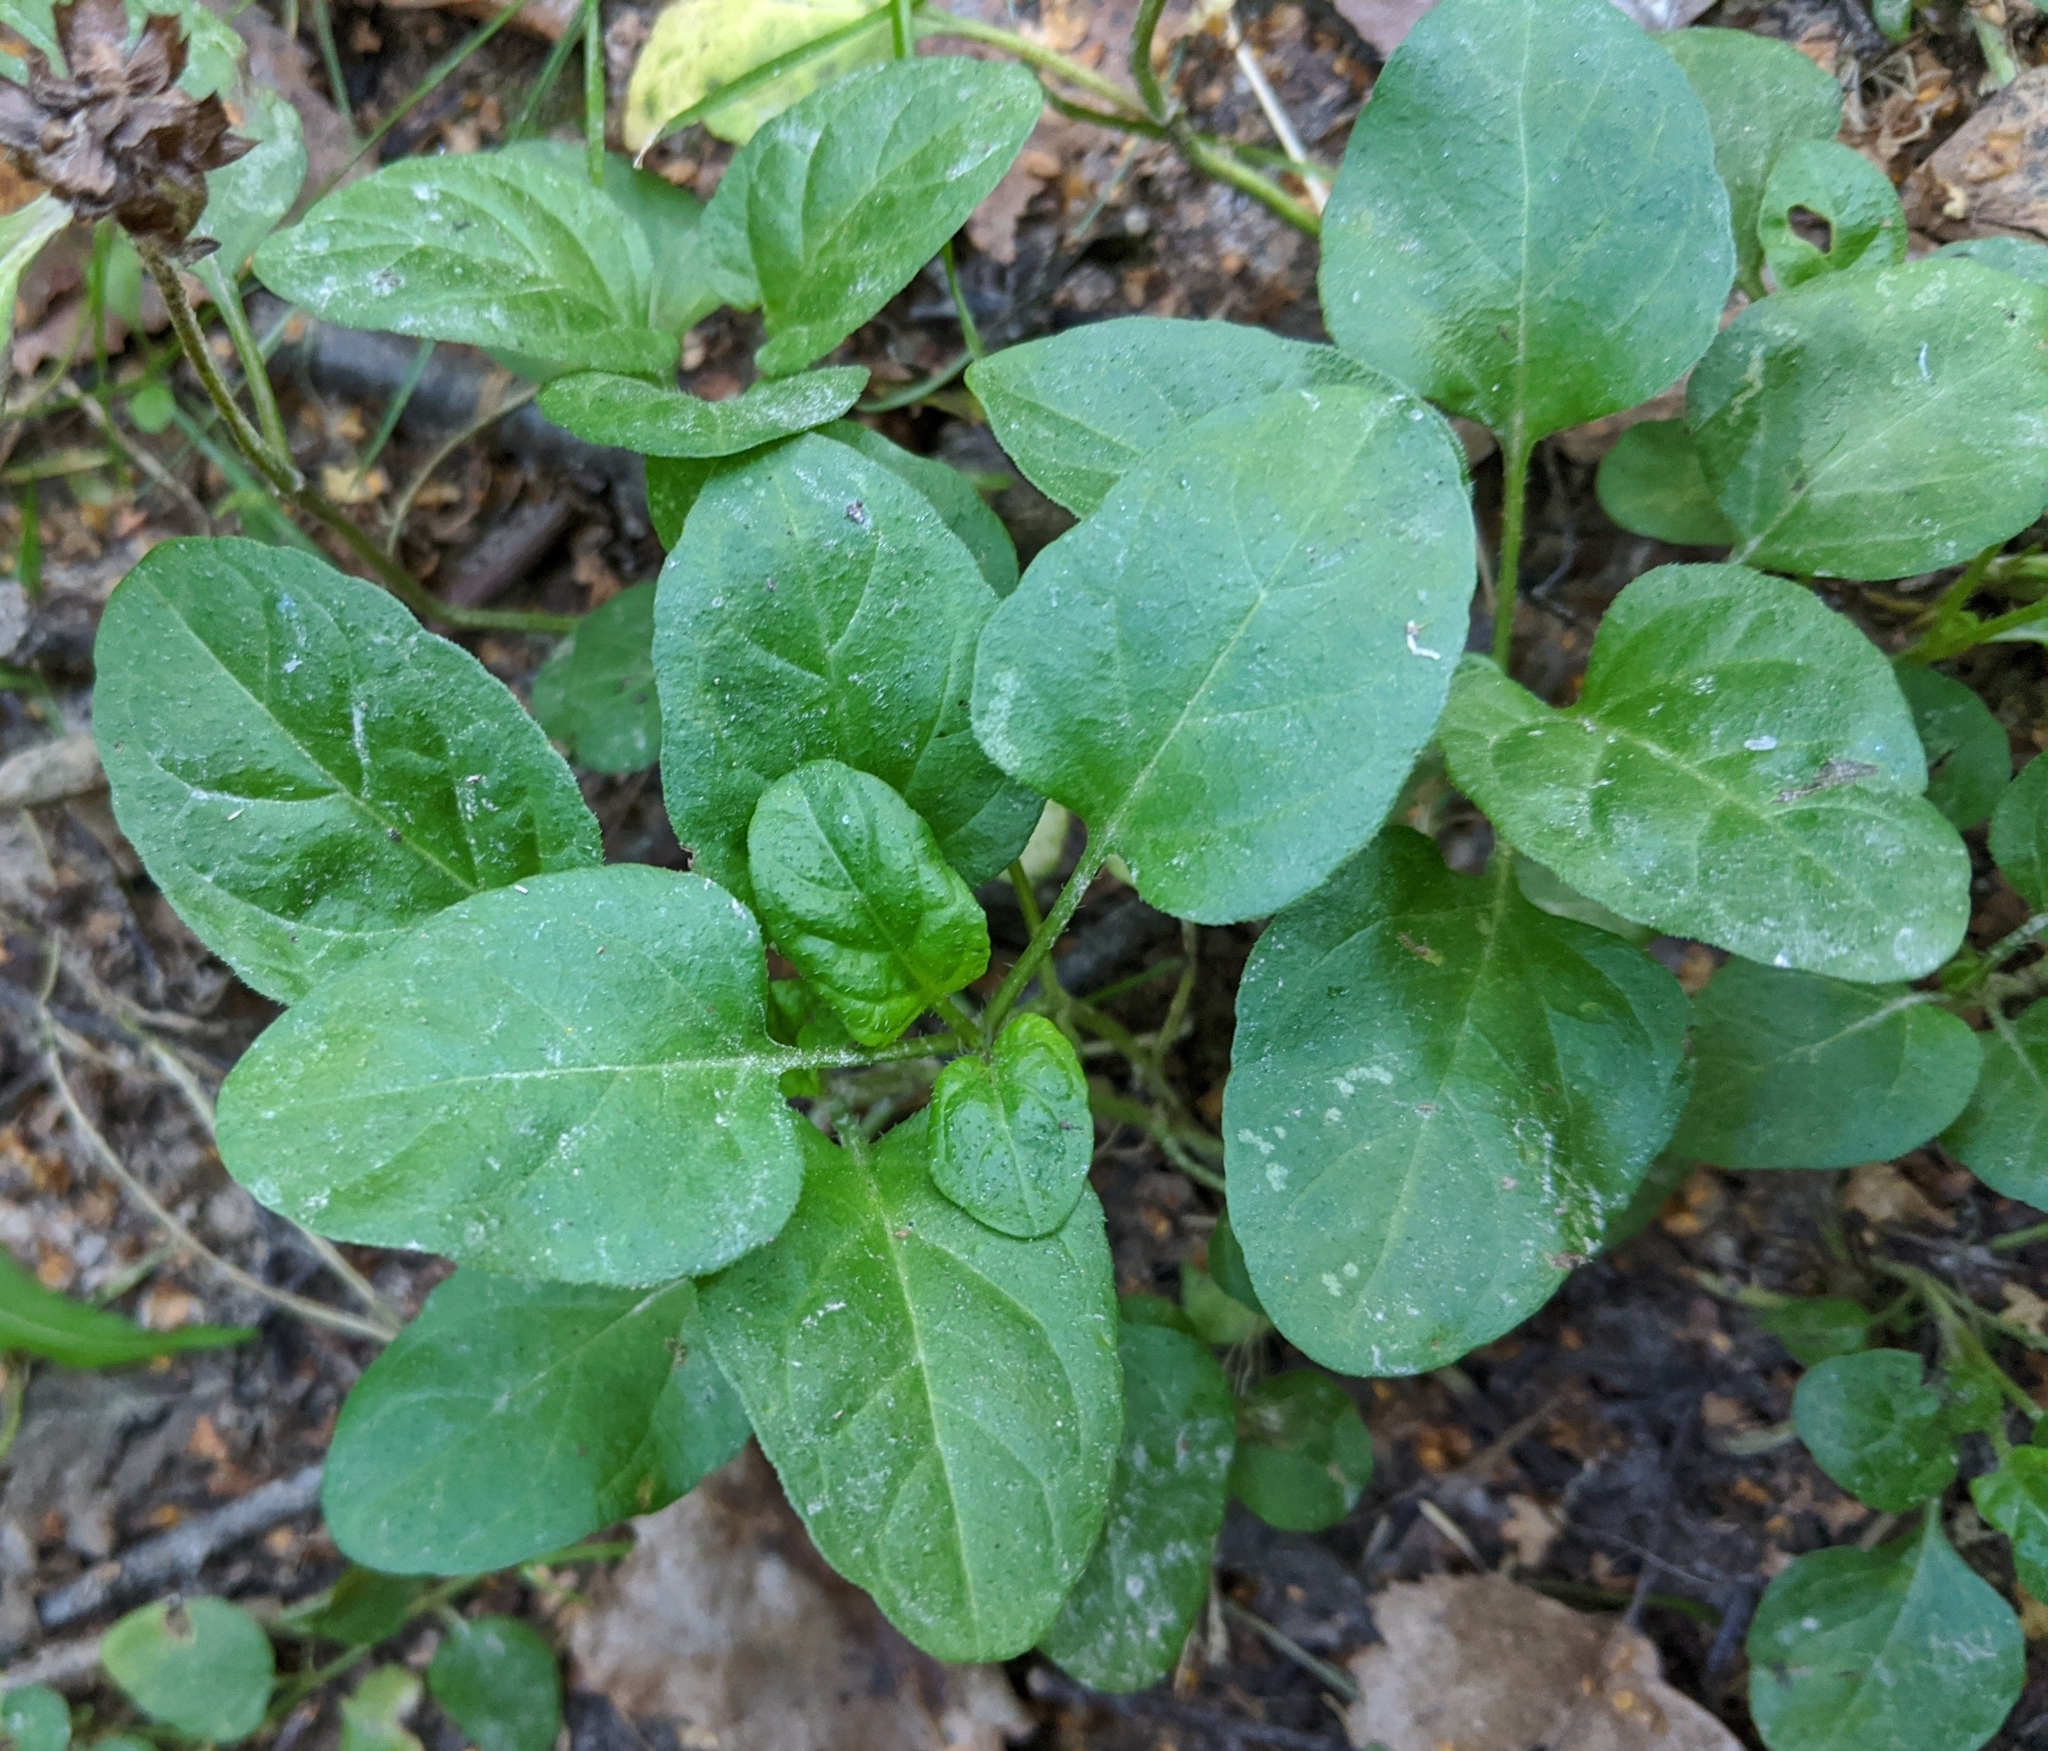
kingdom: Plantae
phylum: Tracheophyta
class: Magnoliopsida
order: Lamiales
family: Lamiaceae
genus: Prunella
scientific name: Prunella vulgaris
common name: Heal-all
